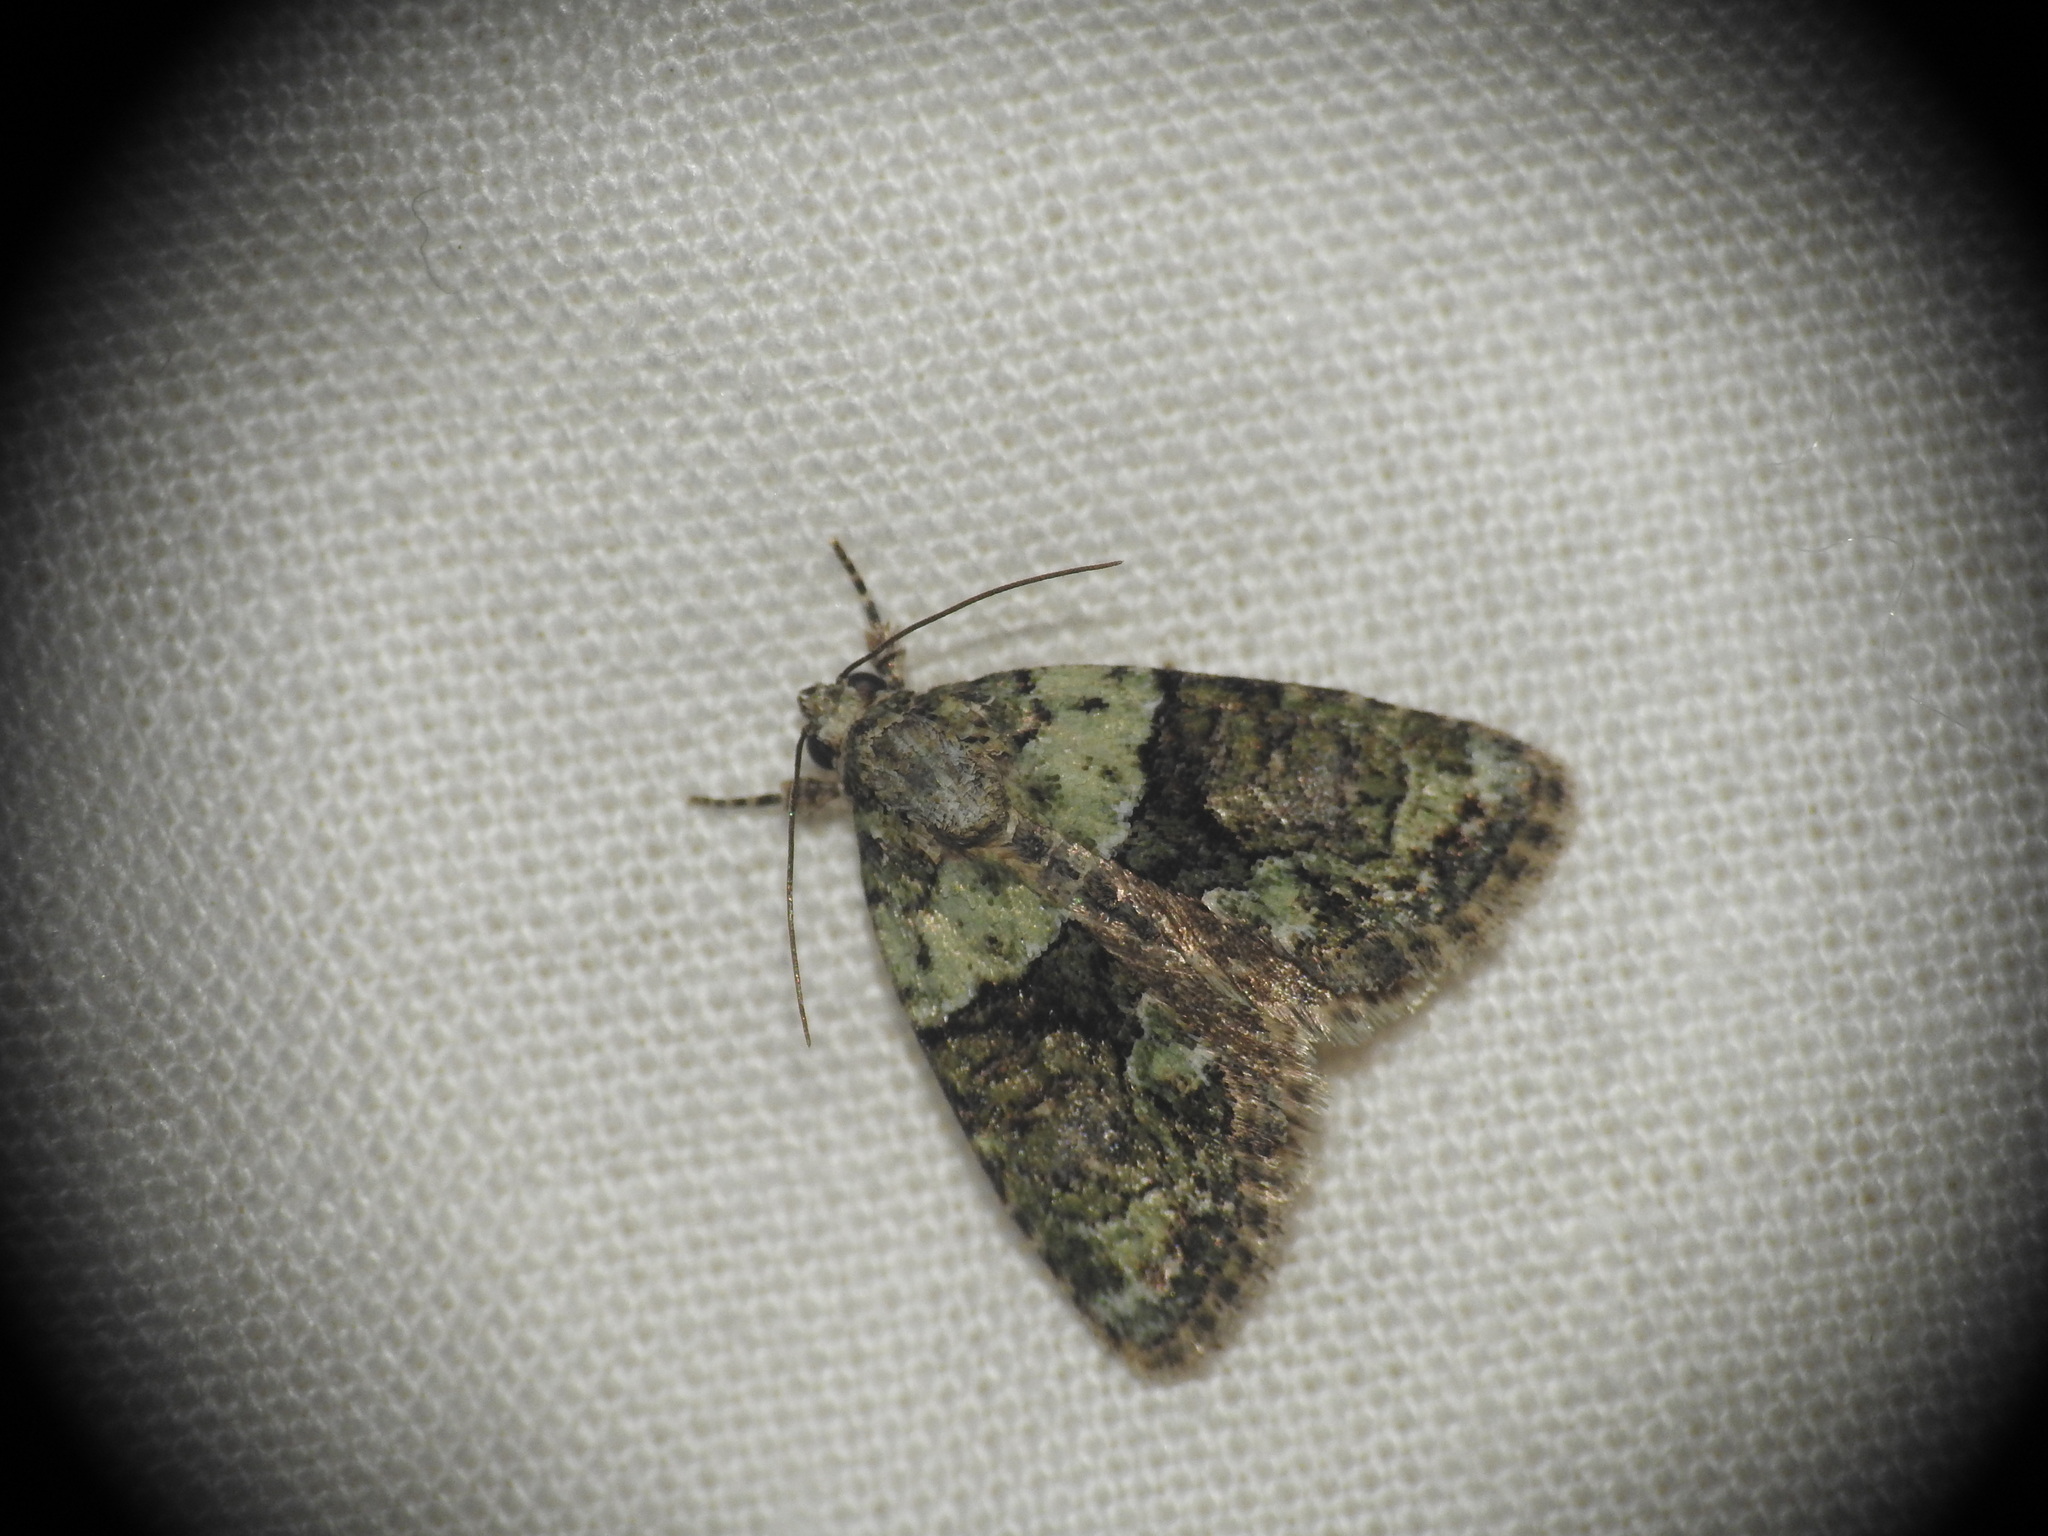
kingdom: Animalia
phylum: Arthropoda
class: Insecta
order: Lepidoptera
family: Noctuidae
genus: Cryphia
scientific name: Cryphia algae
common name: Tree-lichen beauty
